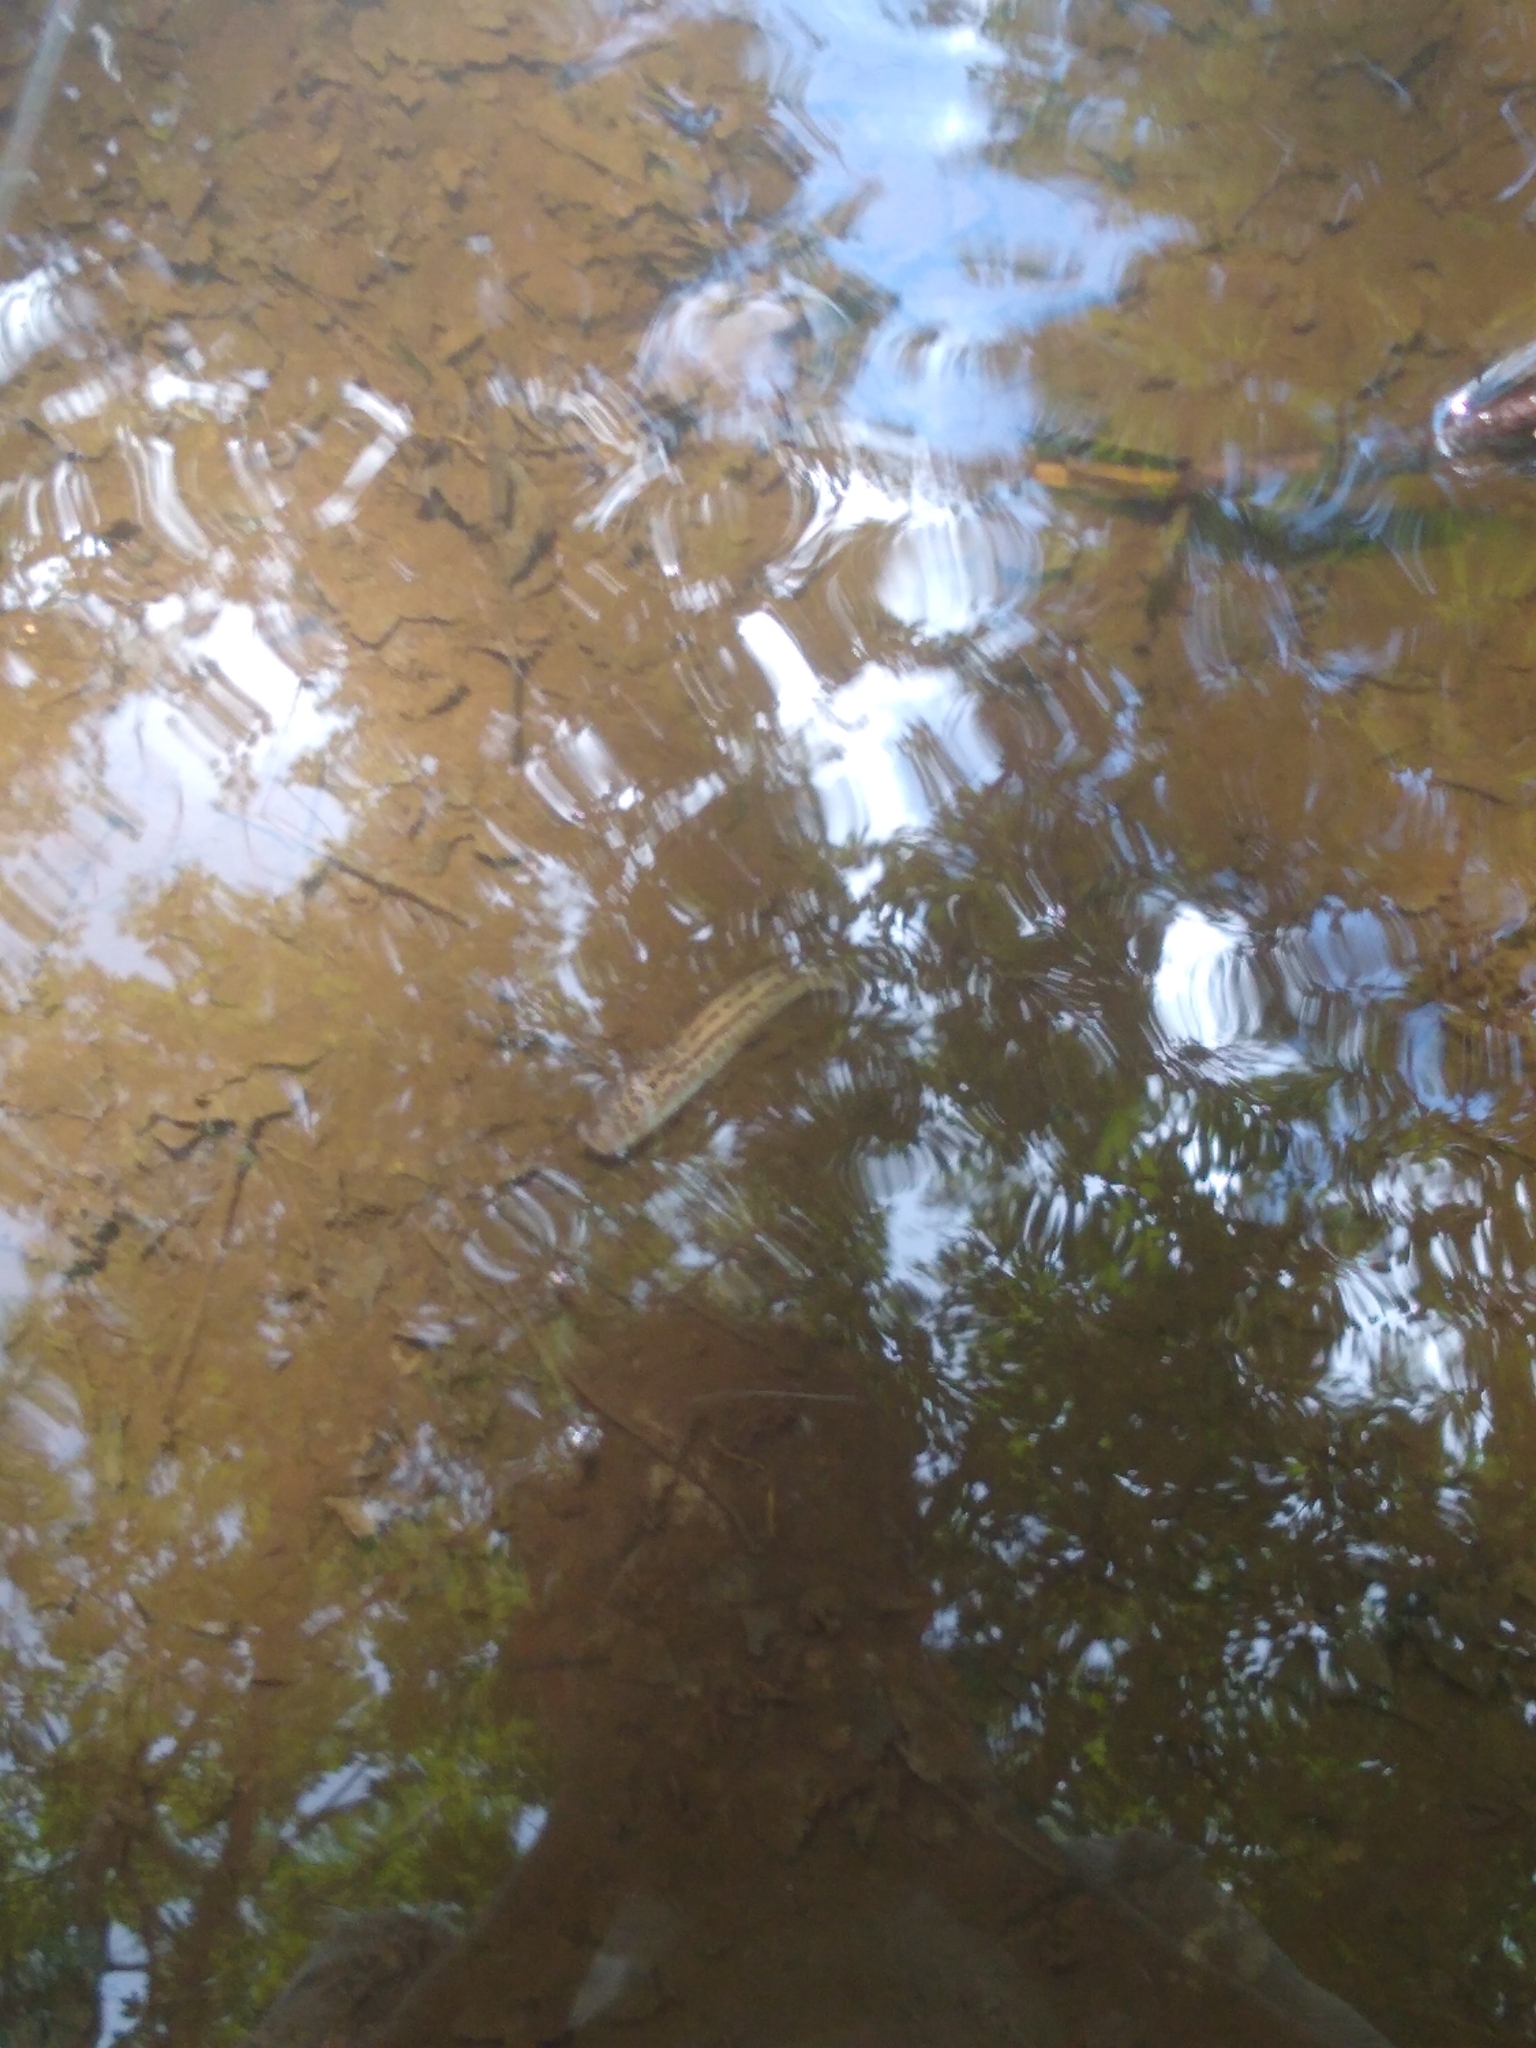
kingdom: Animalia
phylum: Mollusca
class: Gastropoda
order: Stylommatophora
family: Limacidae
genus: Limax
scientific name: Limax maximus
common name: Great grey slug
